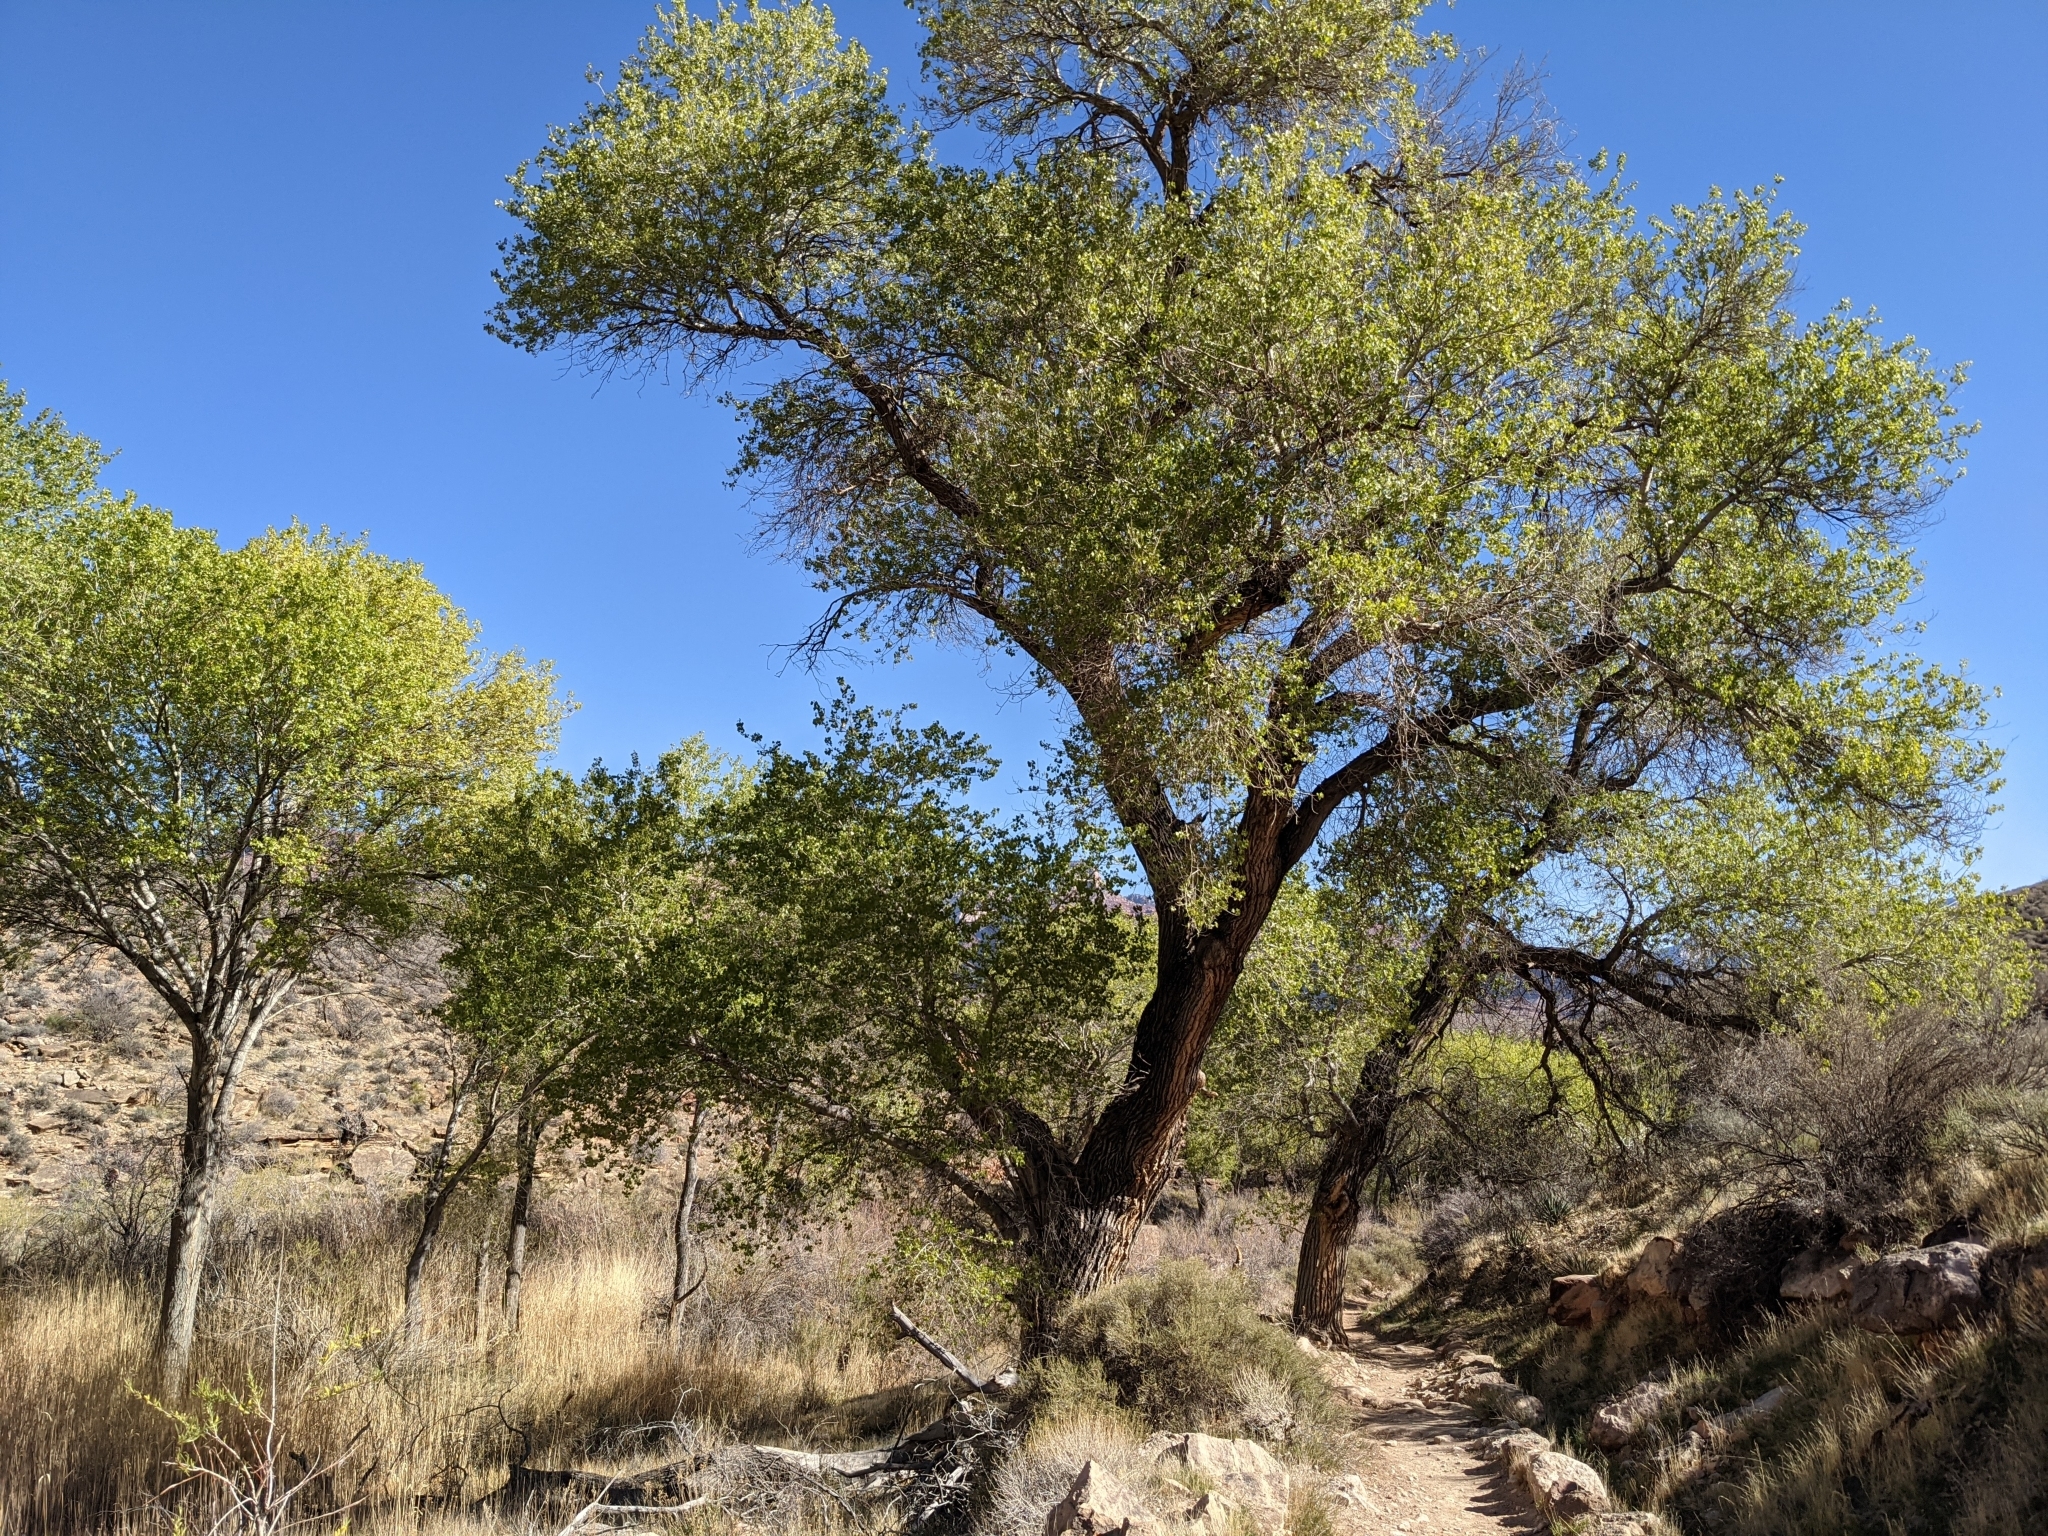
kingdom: Plantae
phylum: Tracheophyta
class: Magnoliopsida
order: Malpighiales
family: Salicaceae
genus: Populus
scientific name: Populus fremontii
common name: Fremont's cottonwood
